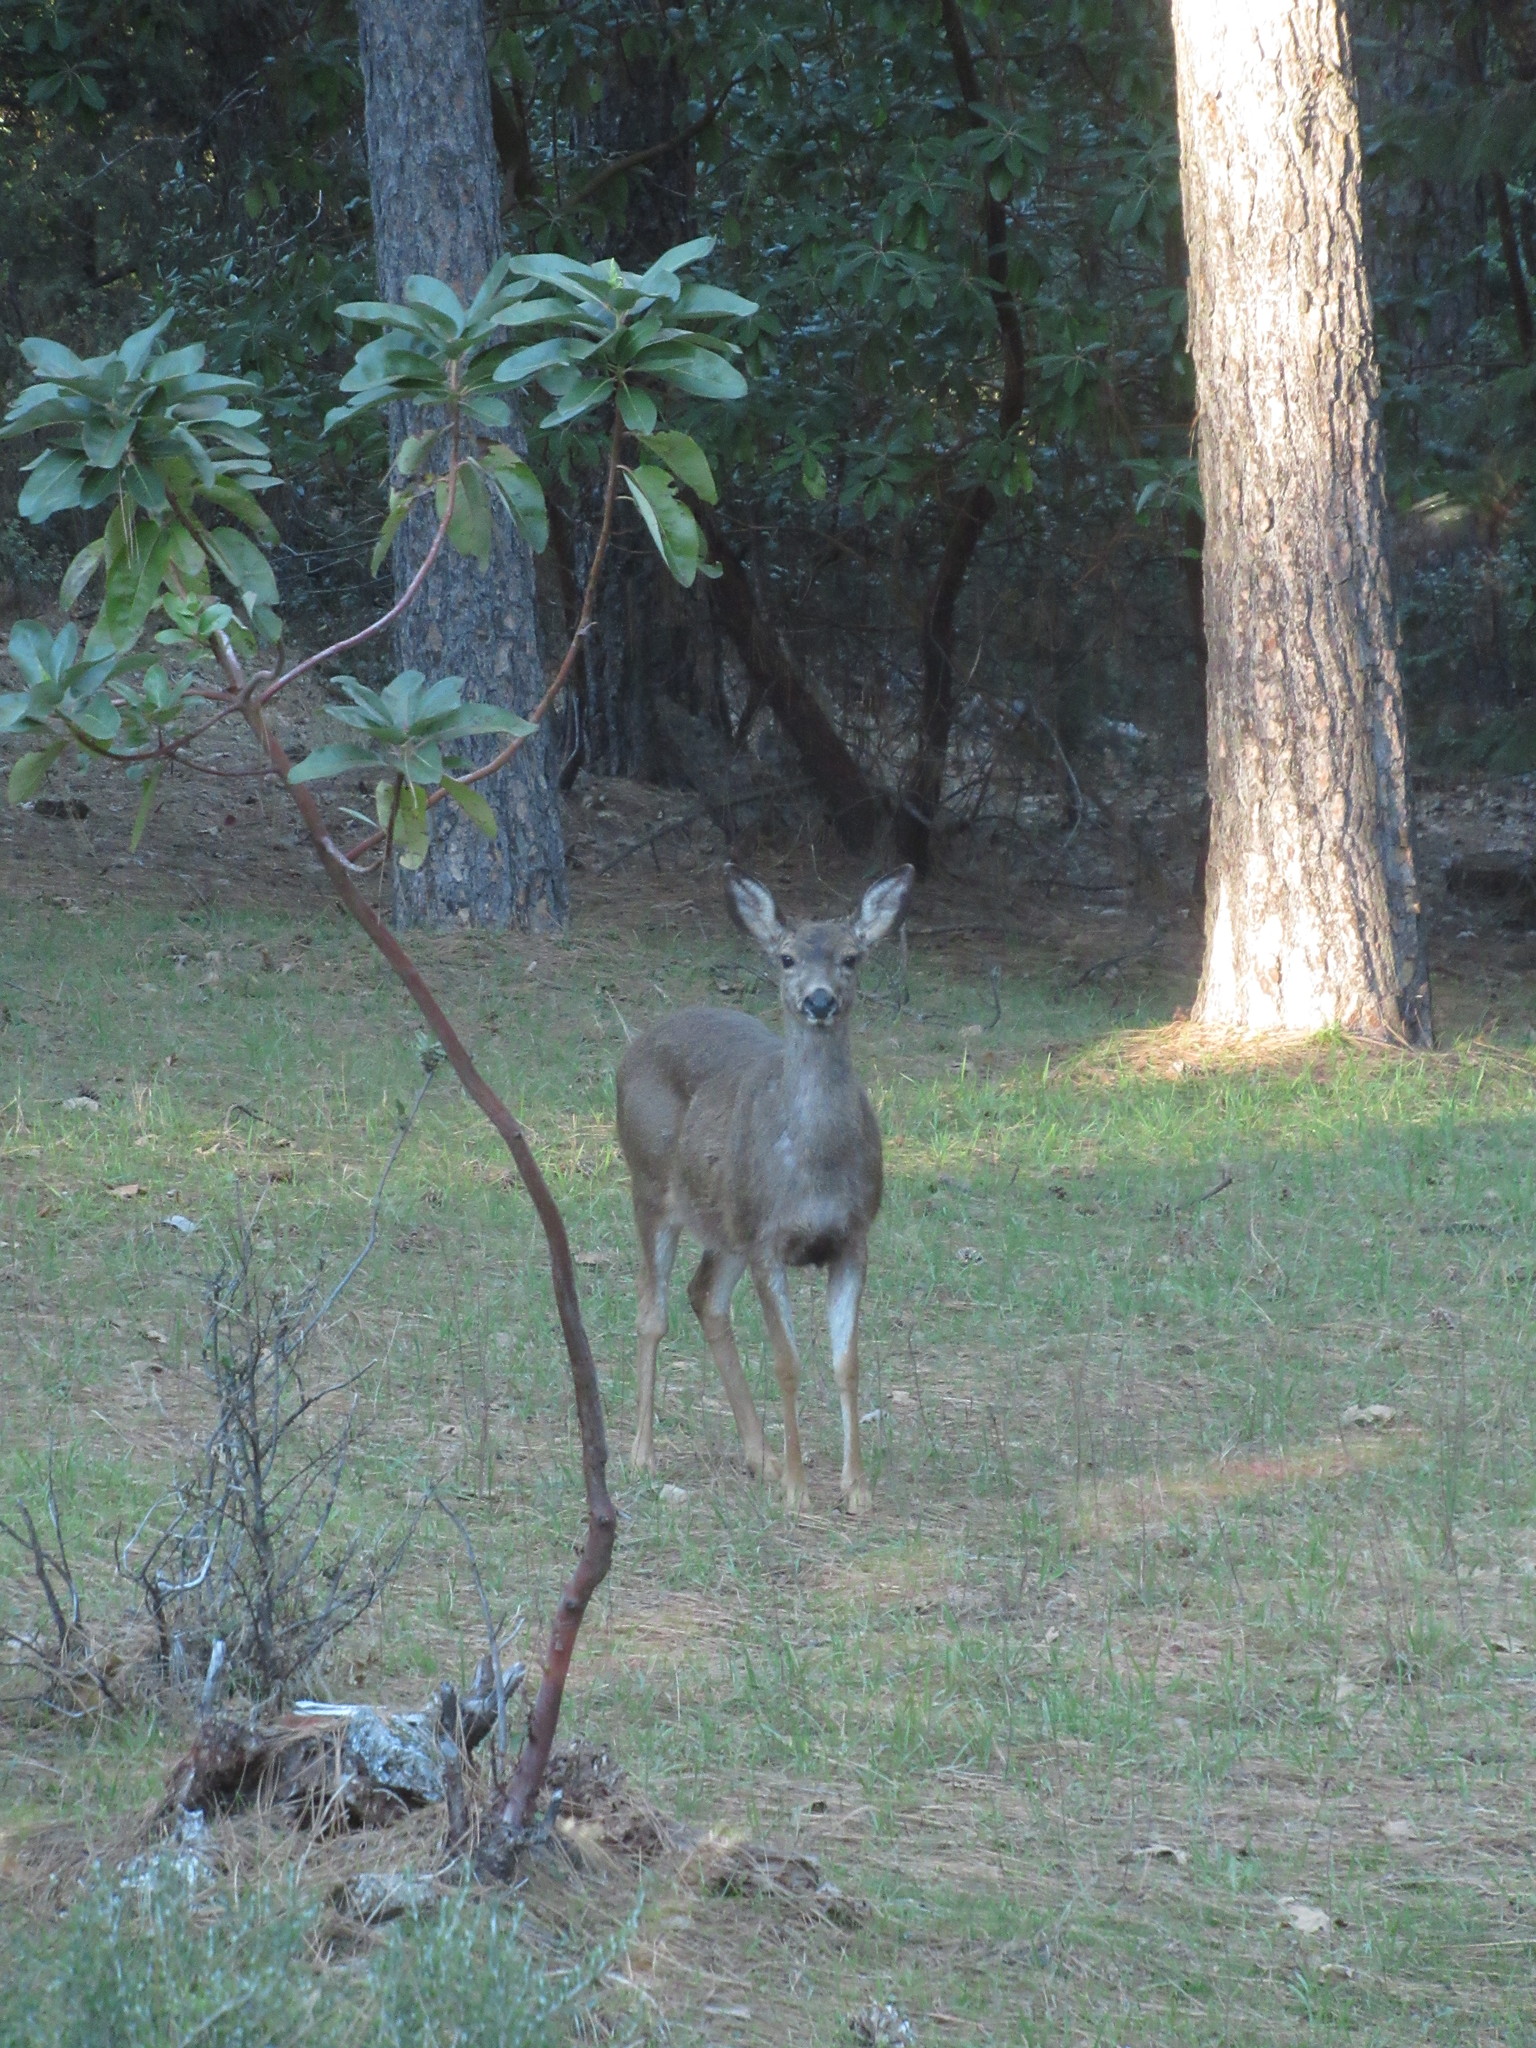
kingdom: Animalia
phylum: Chordata
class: Mammalia
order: Artiodactyla
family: Cervidae
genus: Odocoileus
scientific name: Odocoileus hemionus
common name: Mule deer
